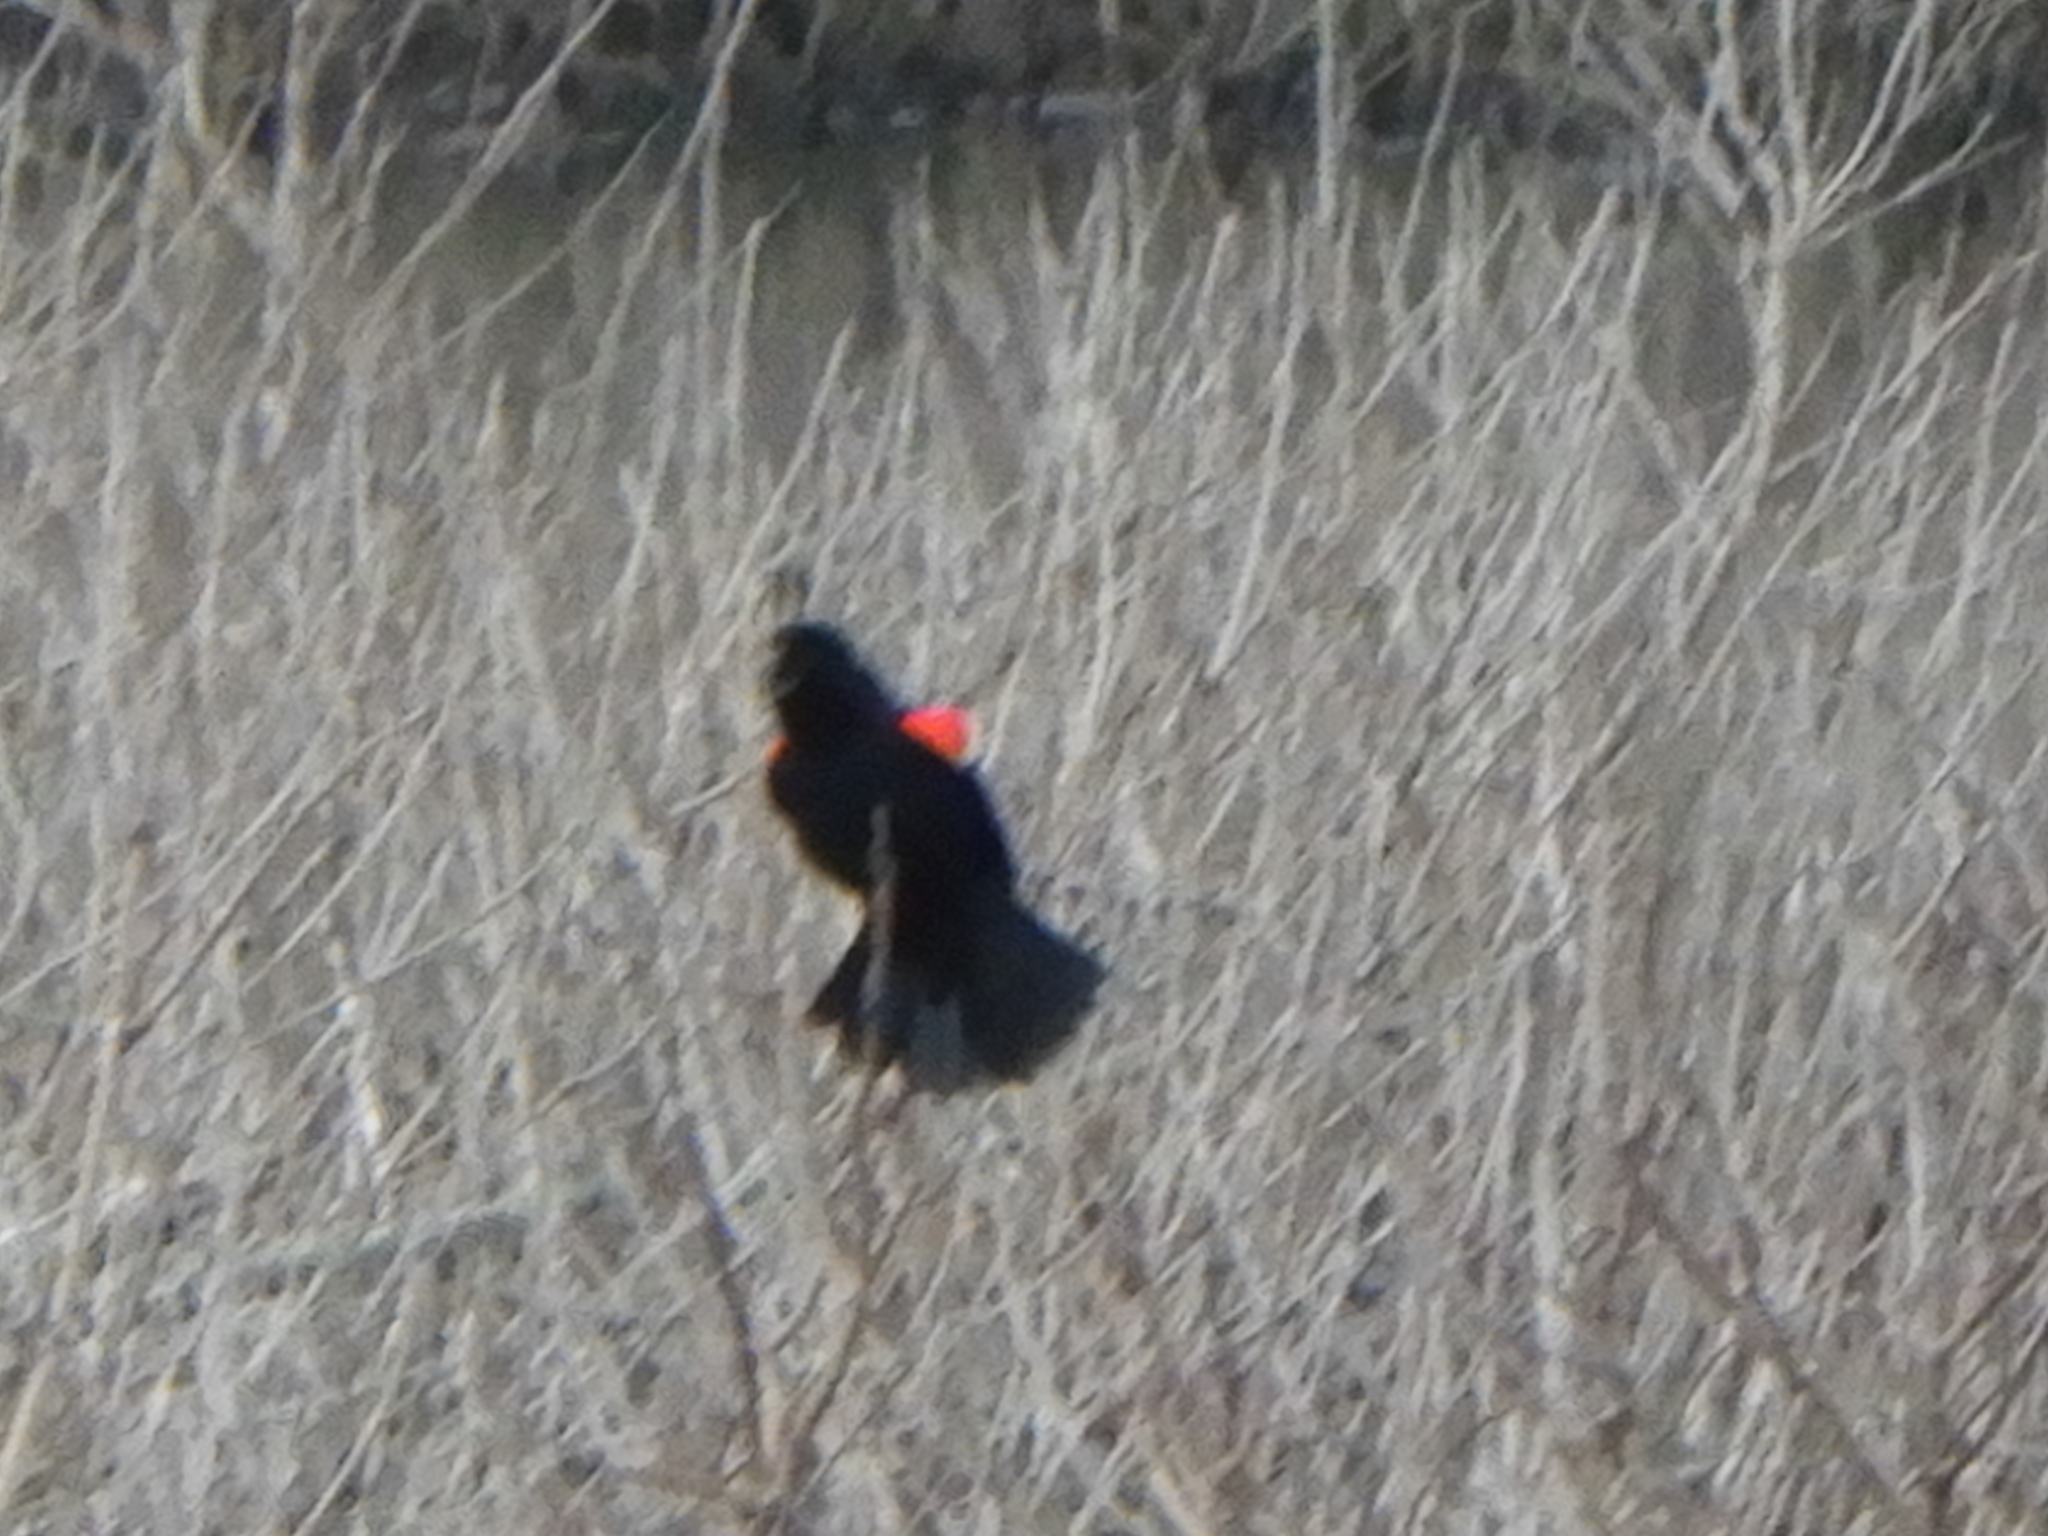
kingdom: Animalia
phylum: Chordata
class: Aves
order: Passeriformes
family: Icteridae
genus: Agelaius
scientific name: Agelaius phoeniceus
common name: Red-winged blackbird
